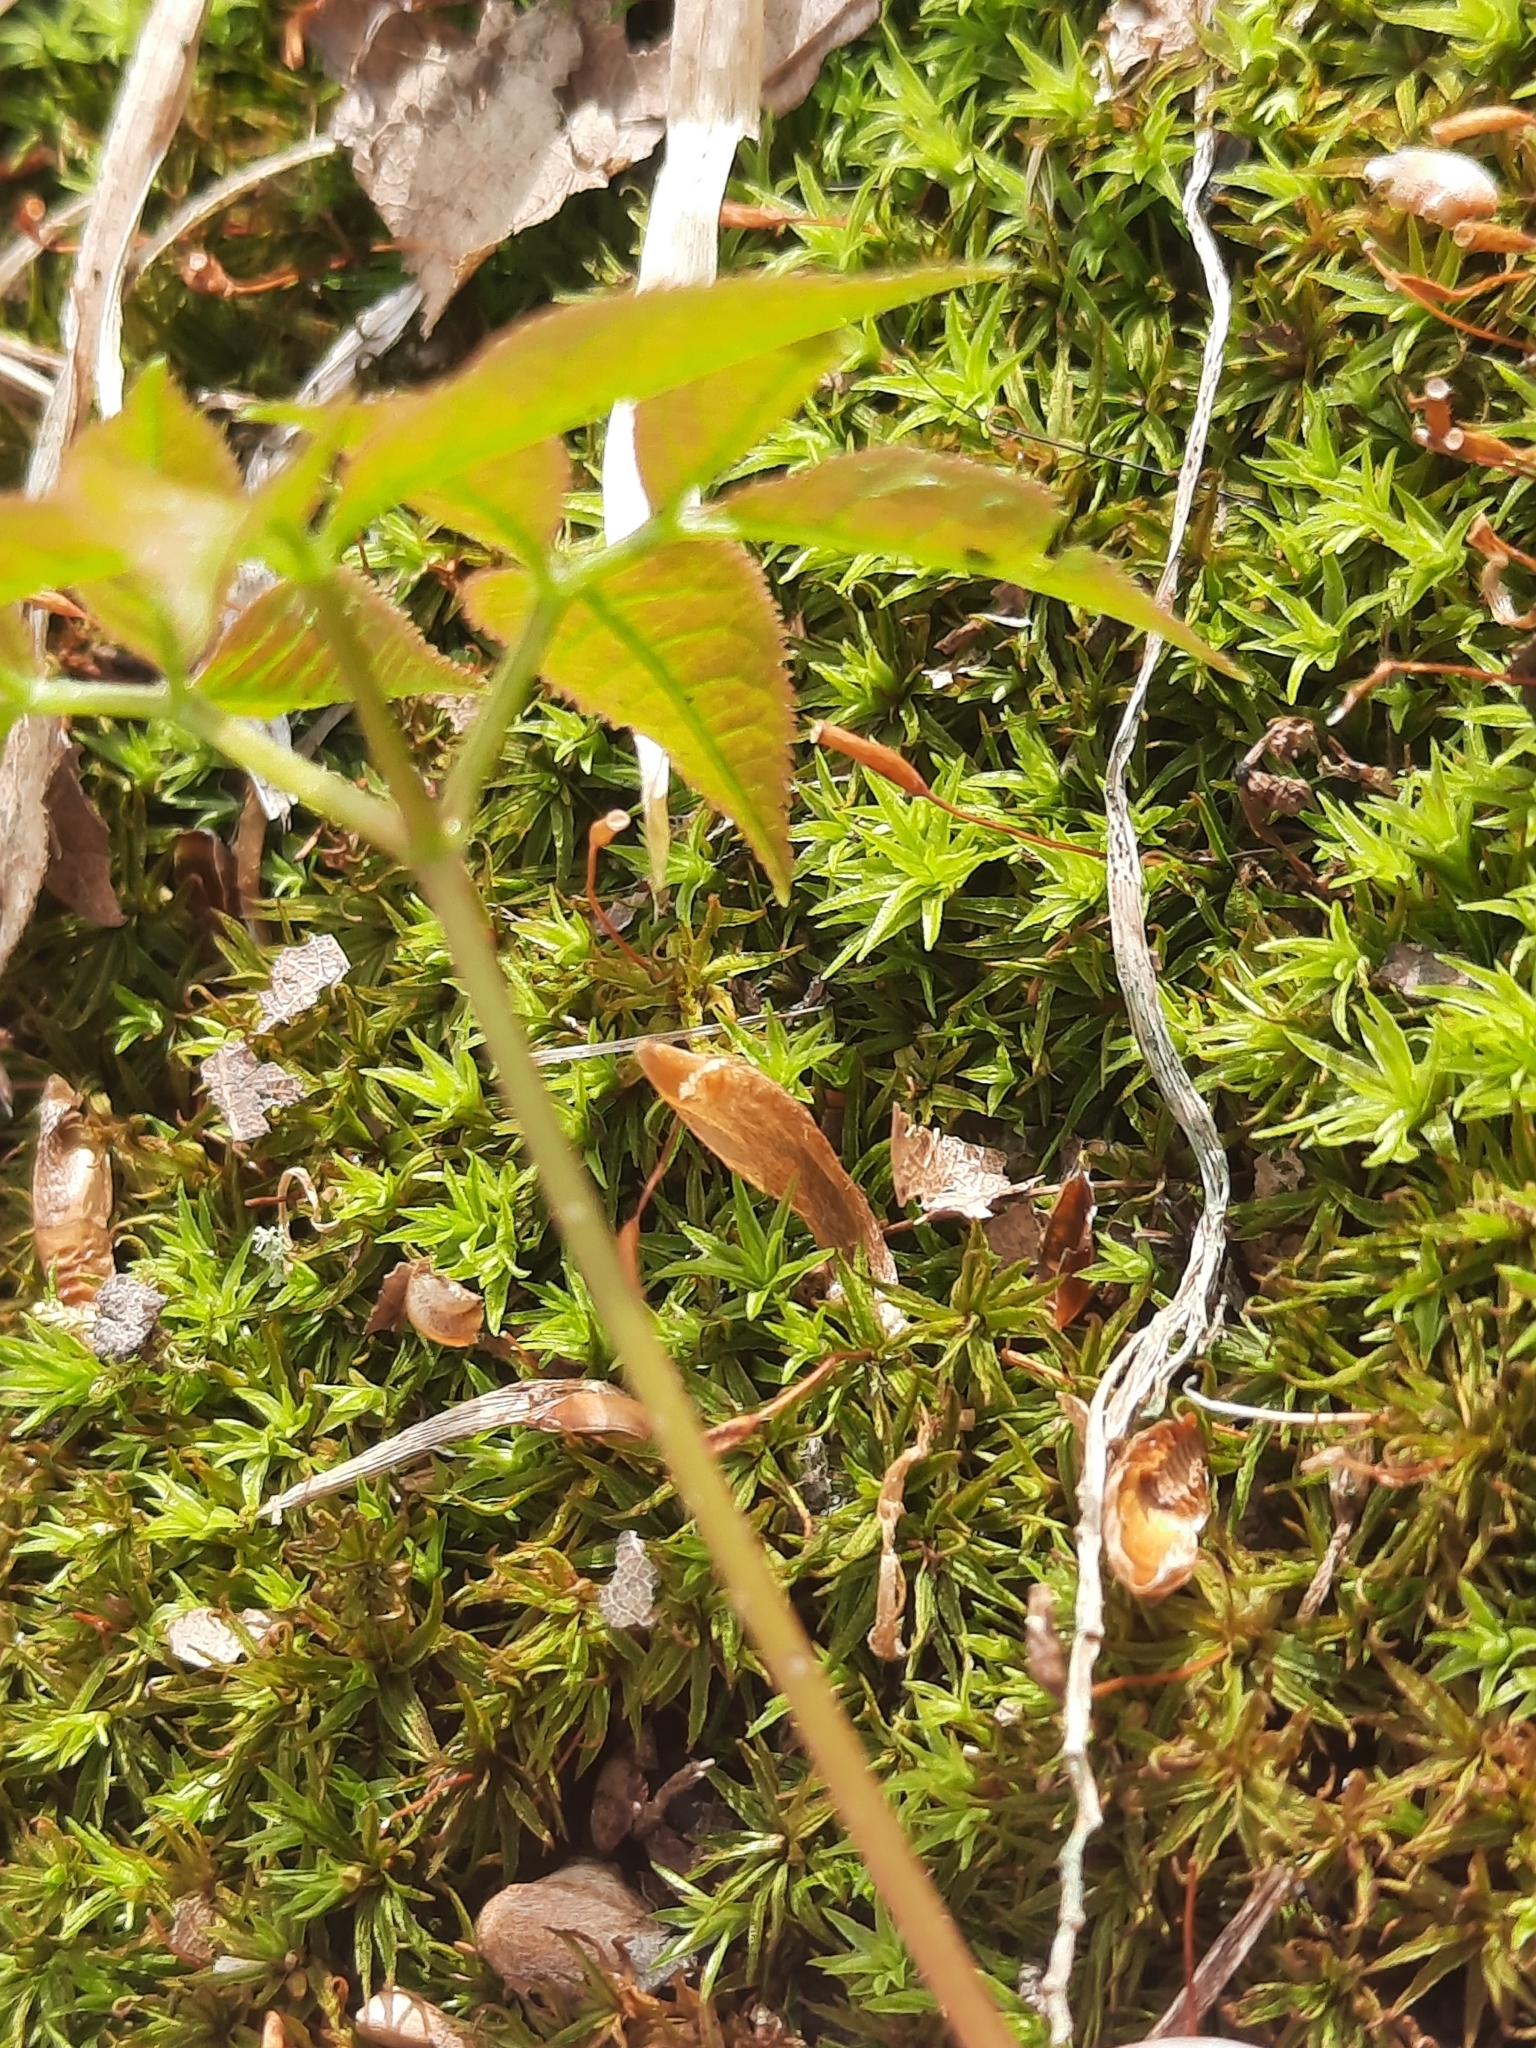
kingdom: Plantae
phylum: Tracheophyta
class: Magnoliopsida
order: Apiales
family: Araliaceae
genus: Aralia
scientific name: Aralia nudicaulis
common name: Wild sarsaparilla
